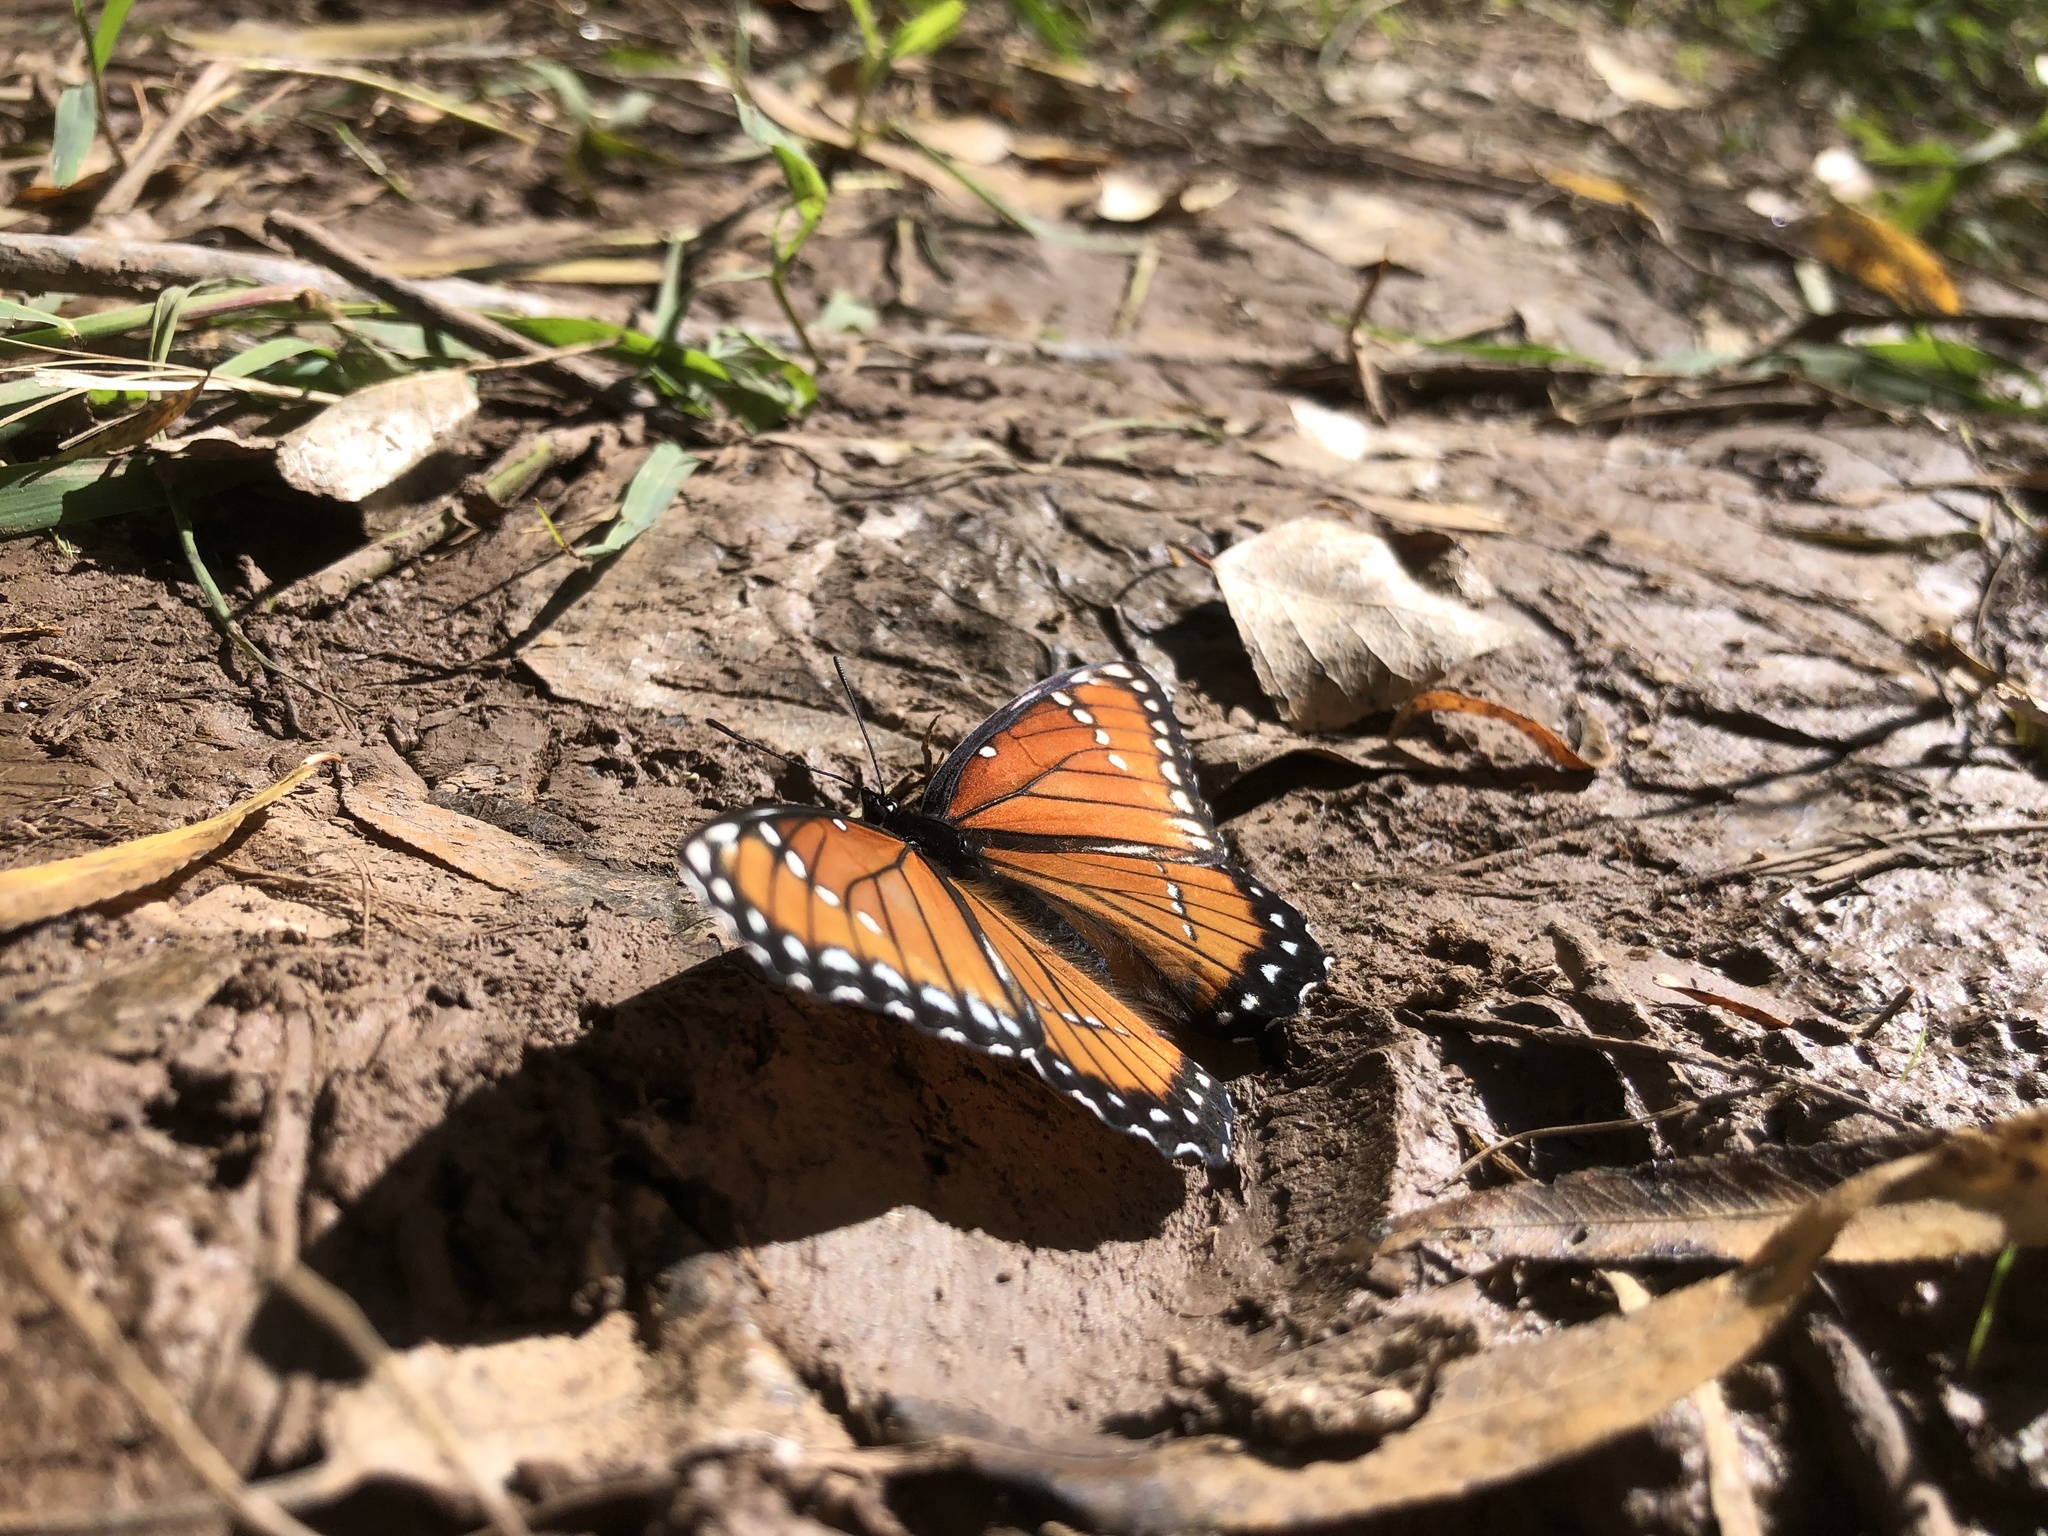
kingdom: Animalia
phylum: Arthropoda
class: Insecta
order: Lepidoptera
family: Nymphalidae
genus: Limenitis
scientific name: Limenitis archippus
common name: Viceroy
